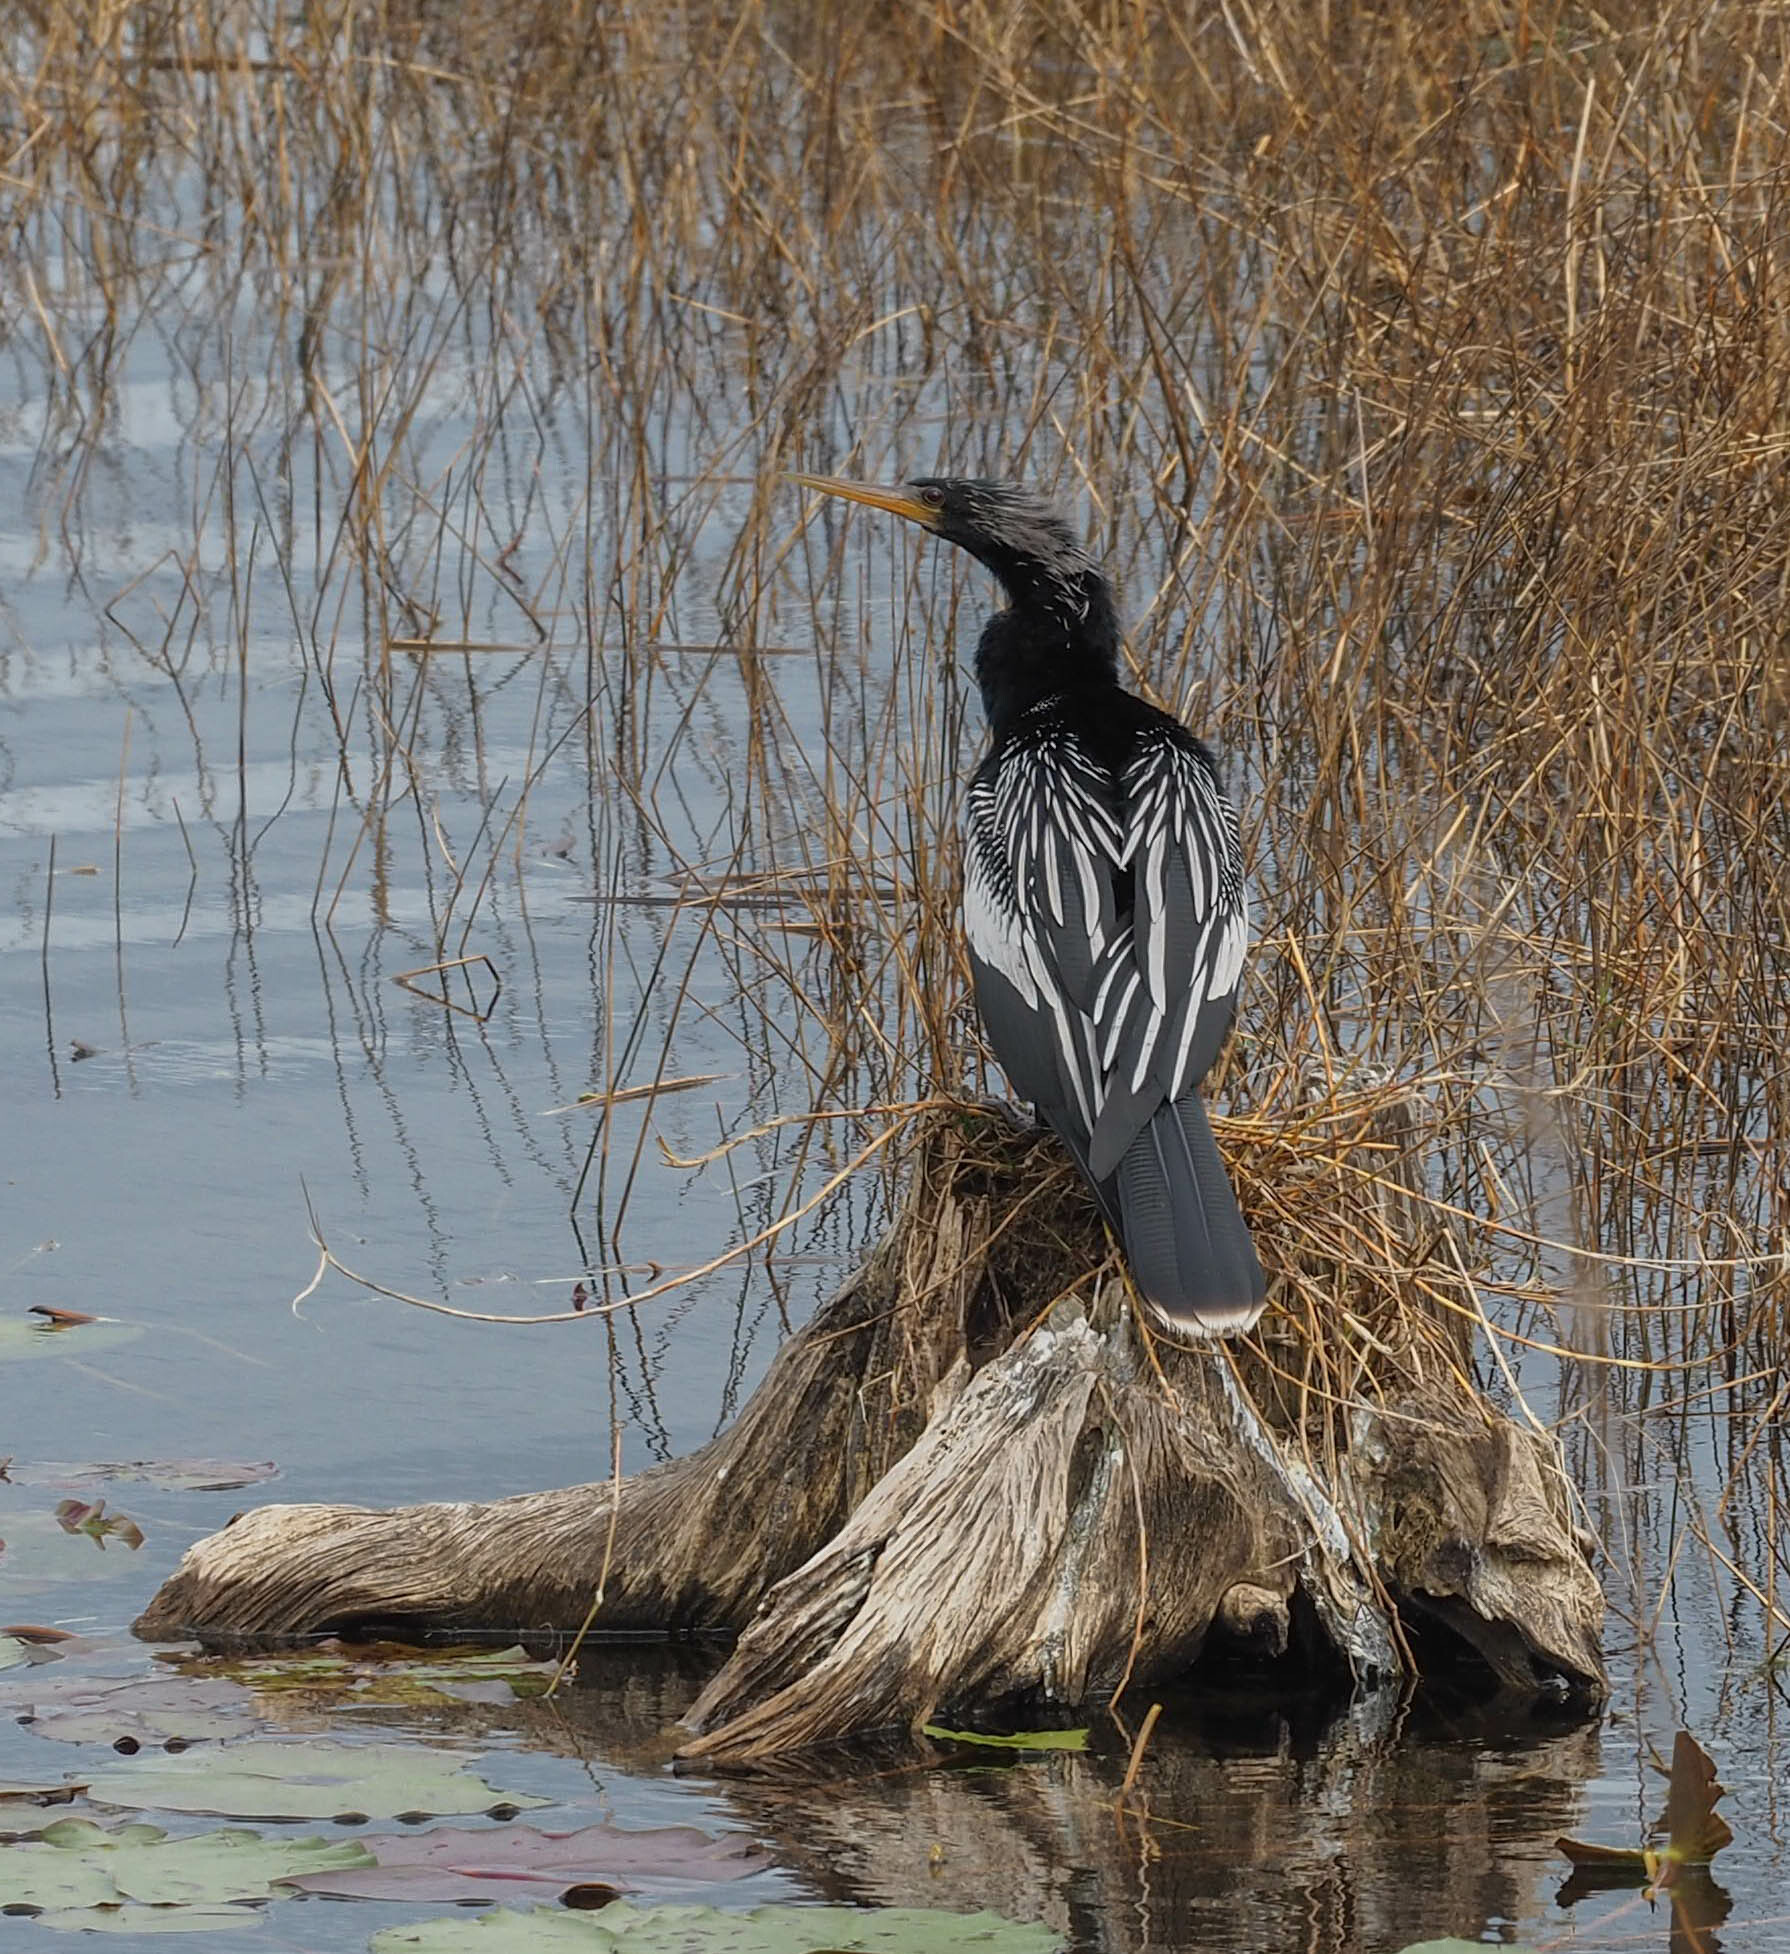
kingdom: Animalia
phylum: Chordata
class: Aves
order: Suliformes
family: Anhingidae
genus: Anhinga
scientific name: Anhinga anhinga
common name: Anhinga
